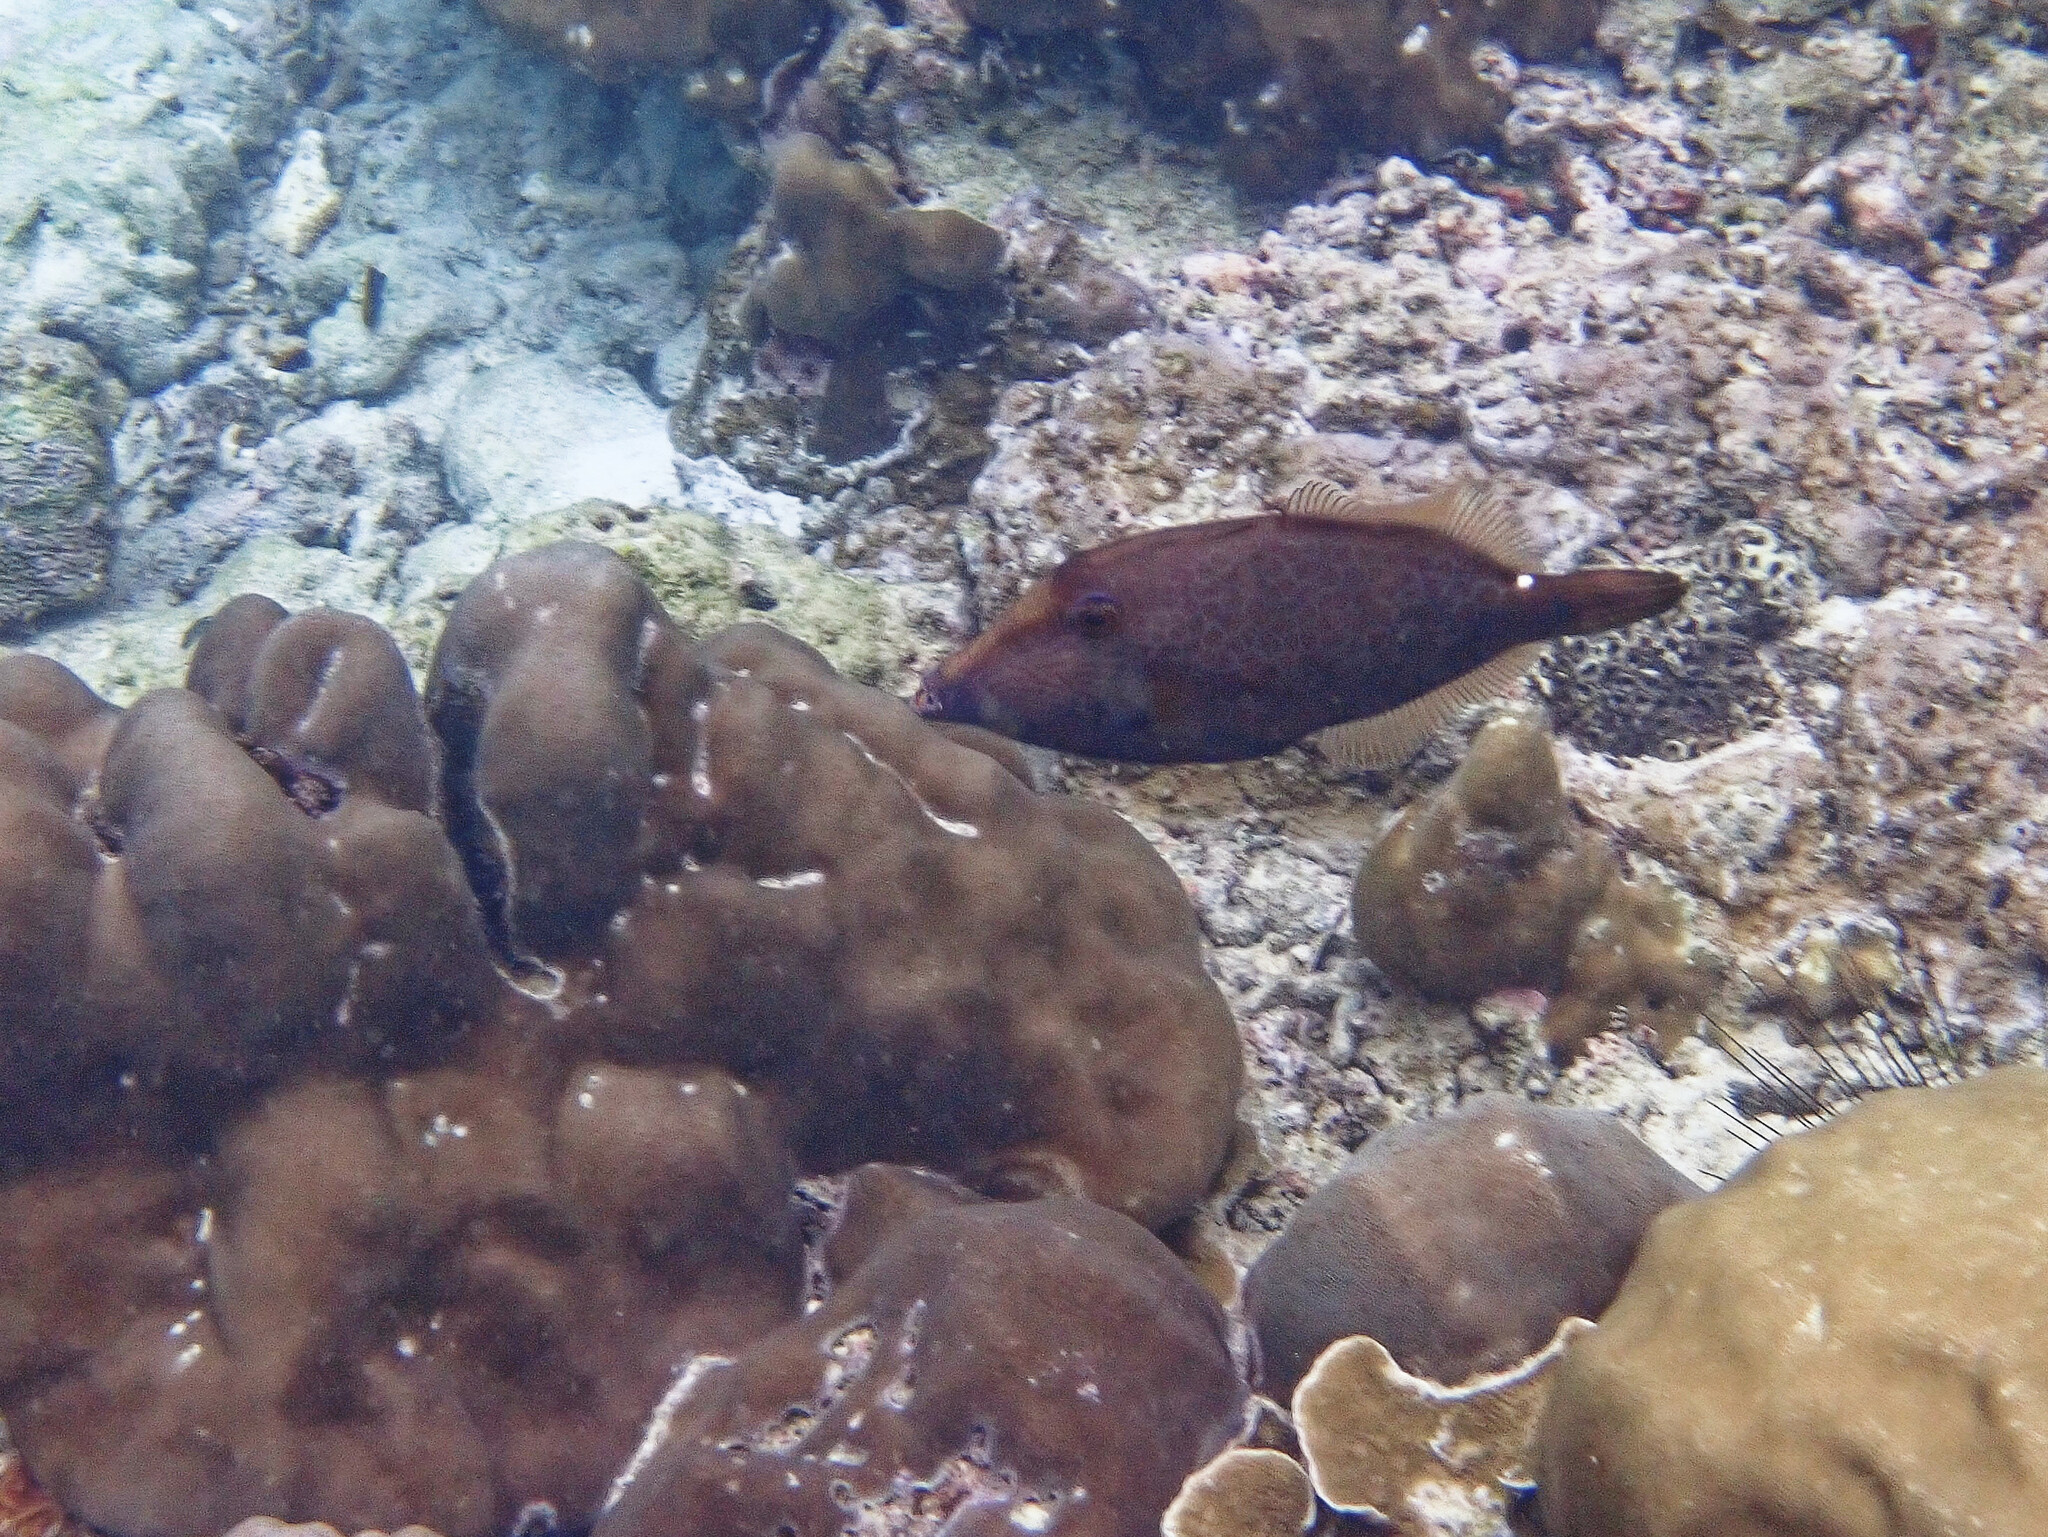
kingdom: Animalia
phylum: Chordata
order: Tetraodontiformes
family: Monacanthidae
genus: Cantherhines
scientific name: Cantherhines pardalis
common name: Honeycomb filefish
